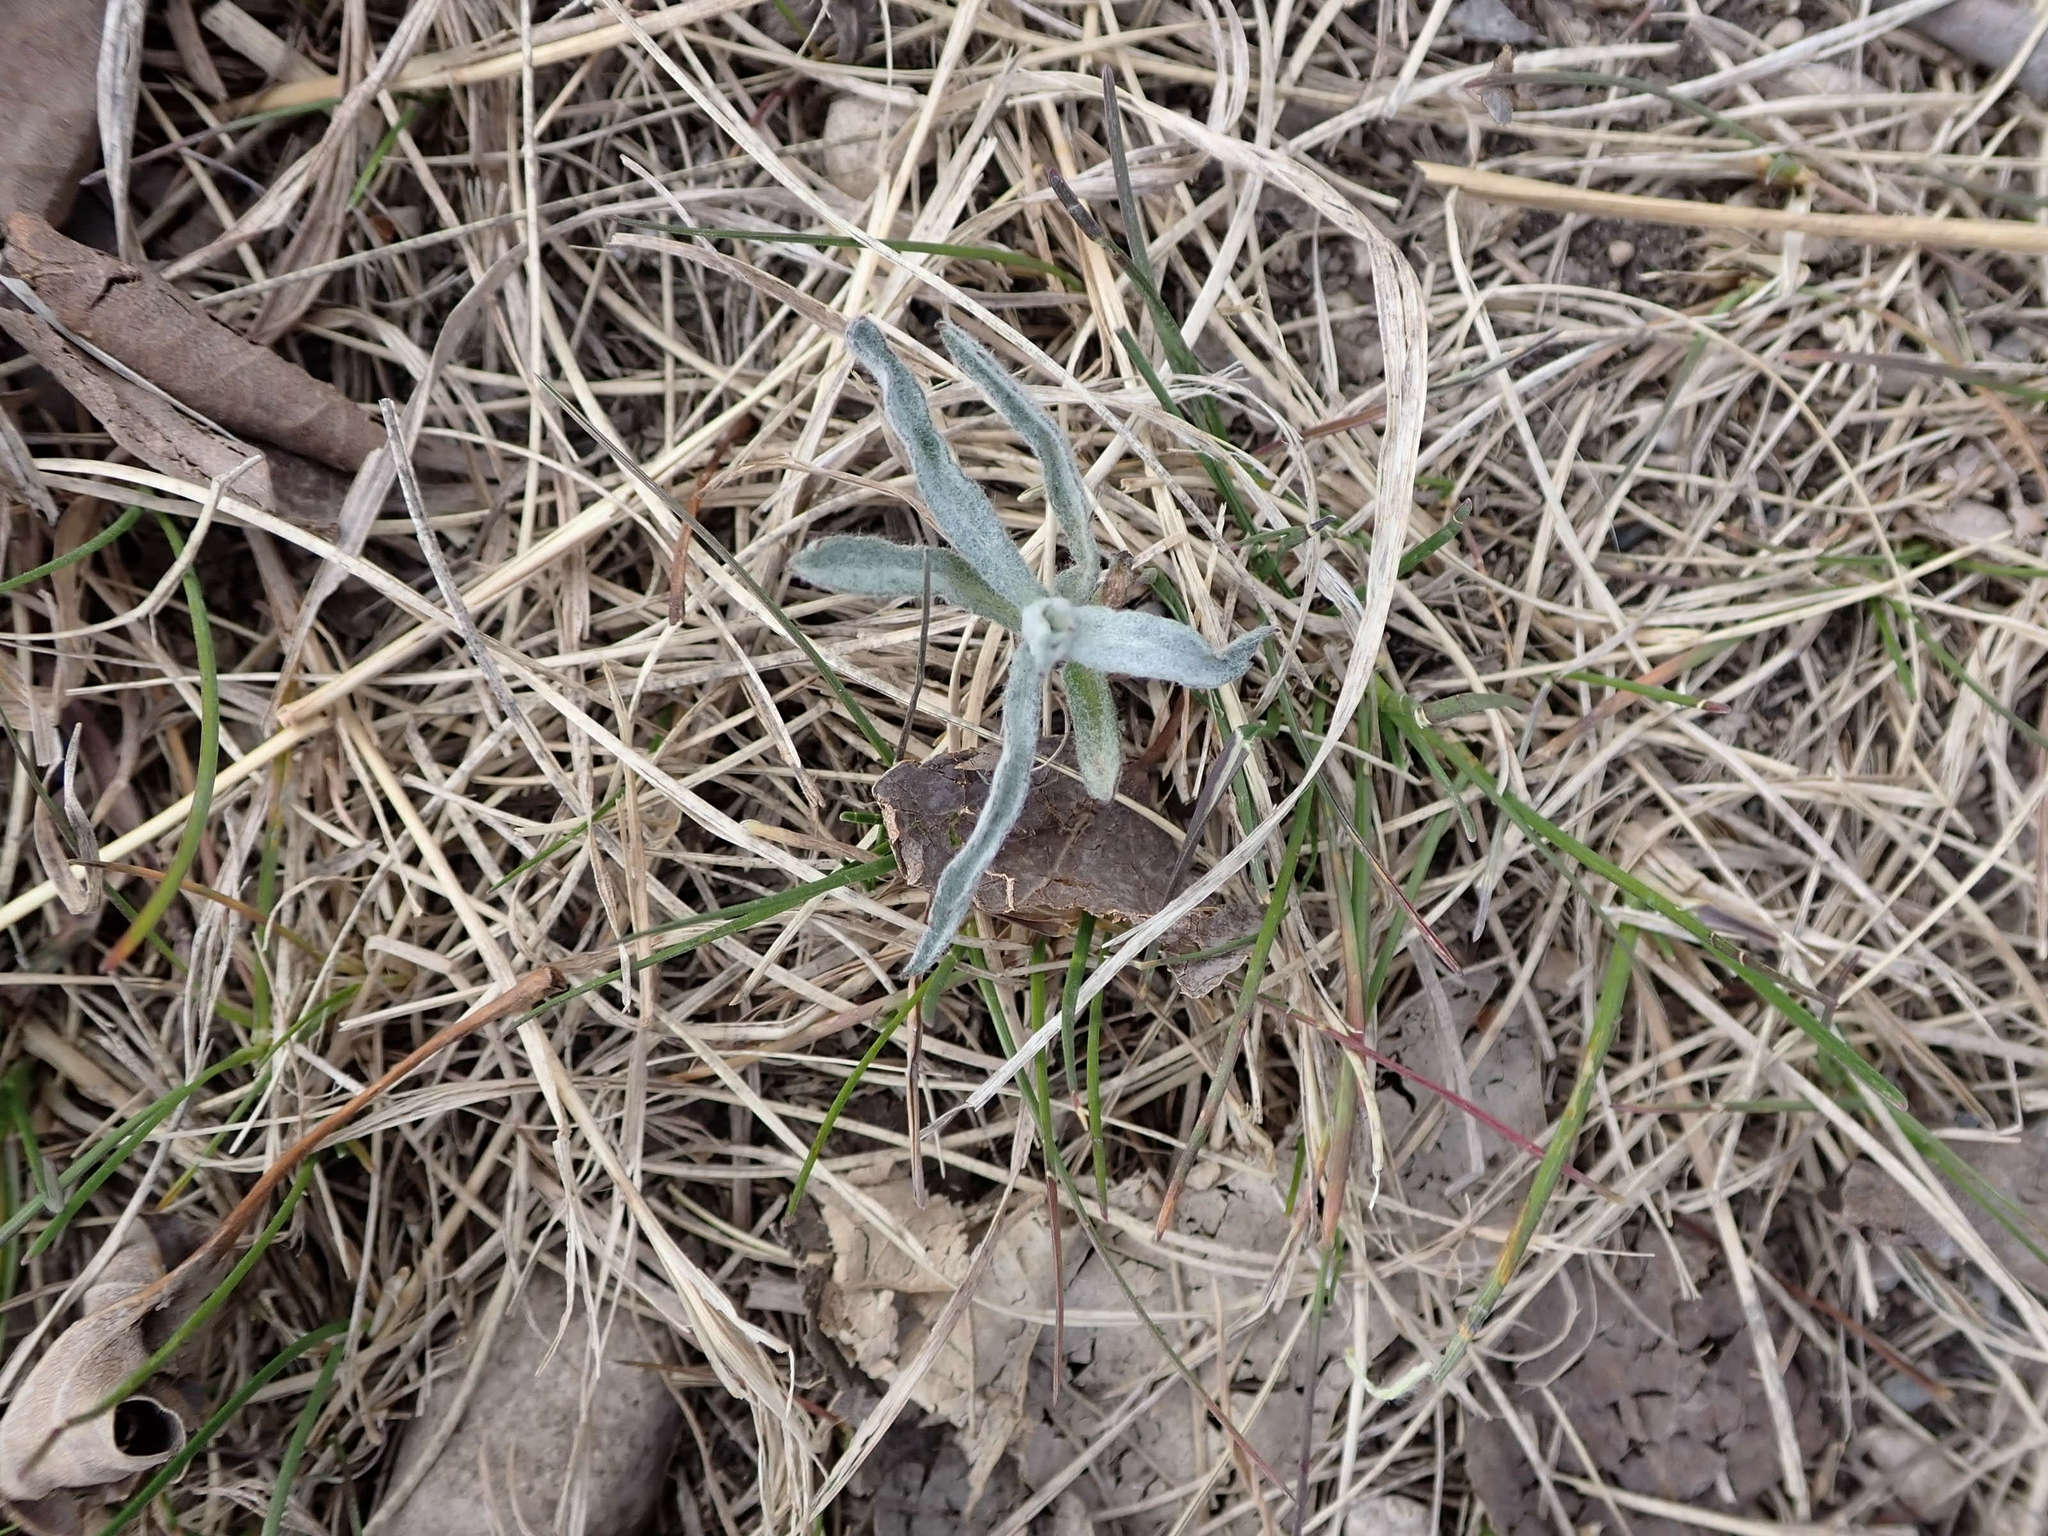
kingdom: Plantae
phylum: Tracheophyta
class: Magnoliopsida
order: Asterales
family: Asteraceae
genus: Artemisia
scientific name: Artemisia ludoviciana
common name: Western mugwort
